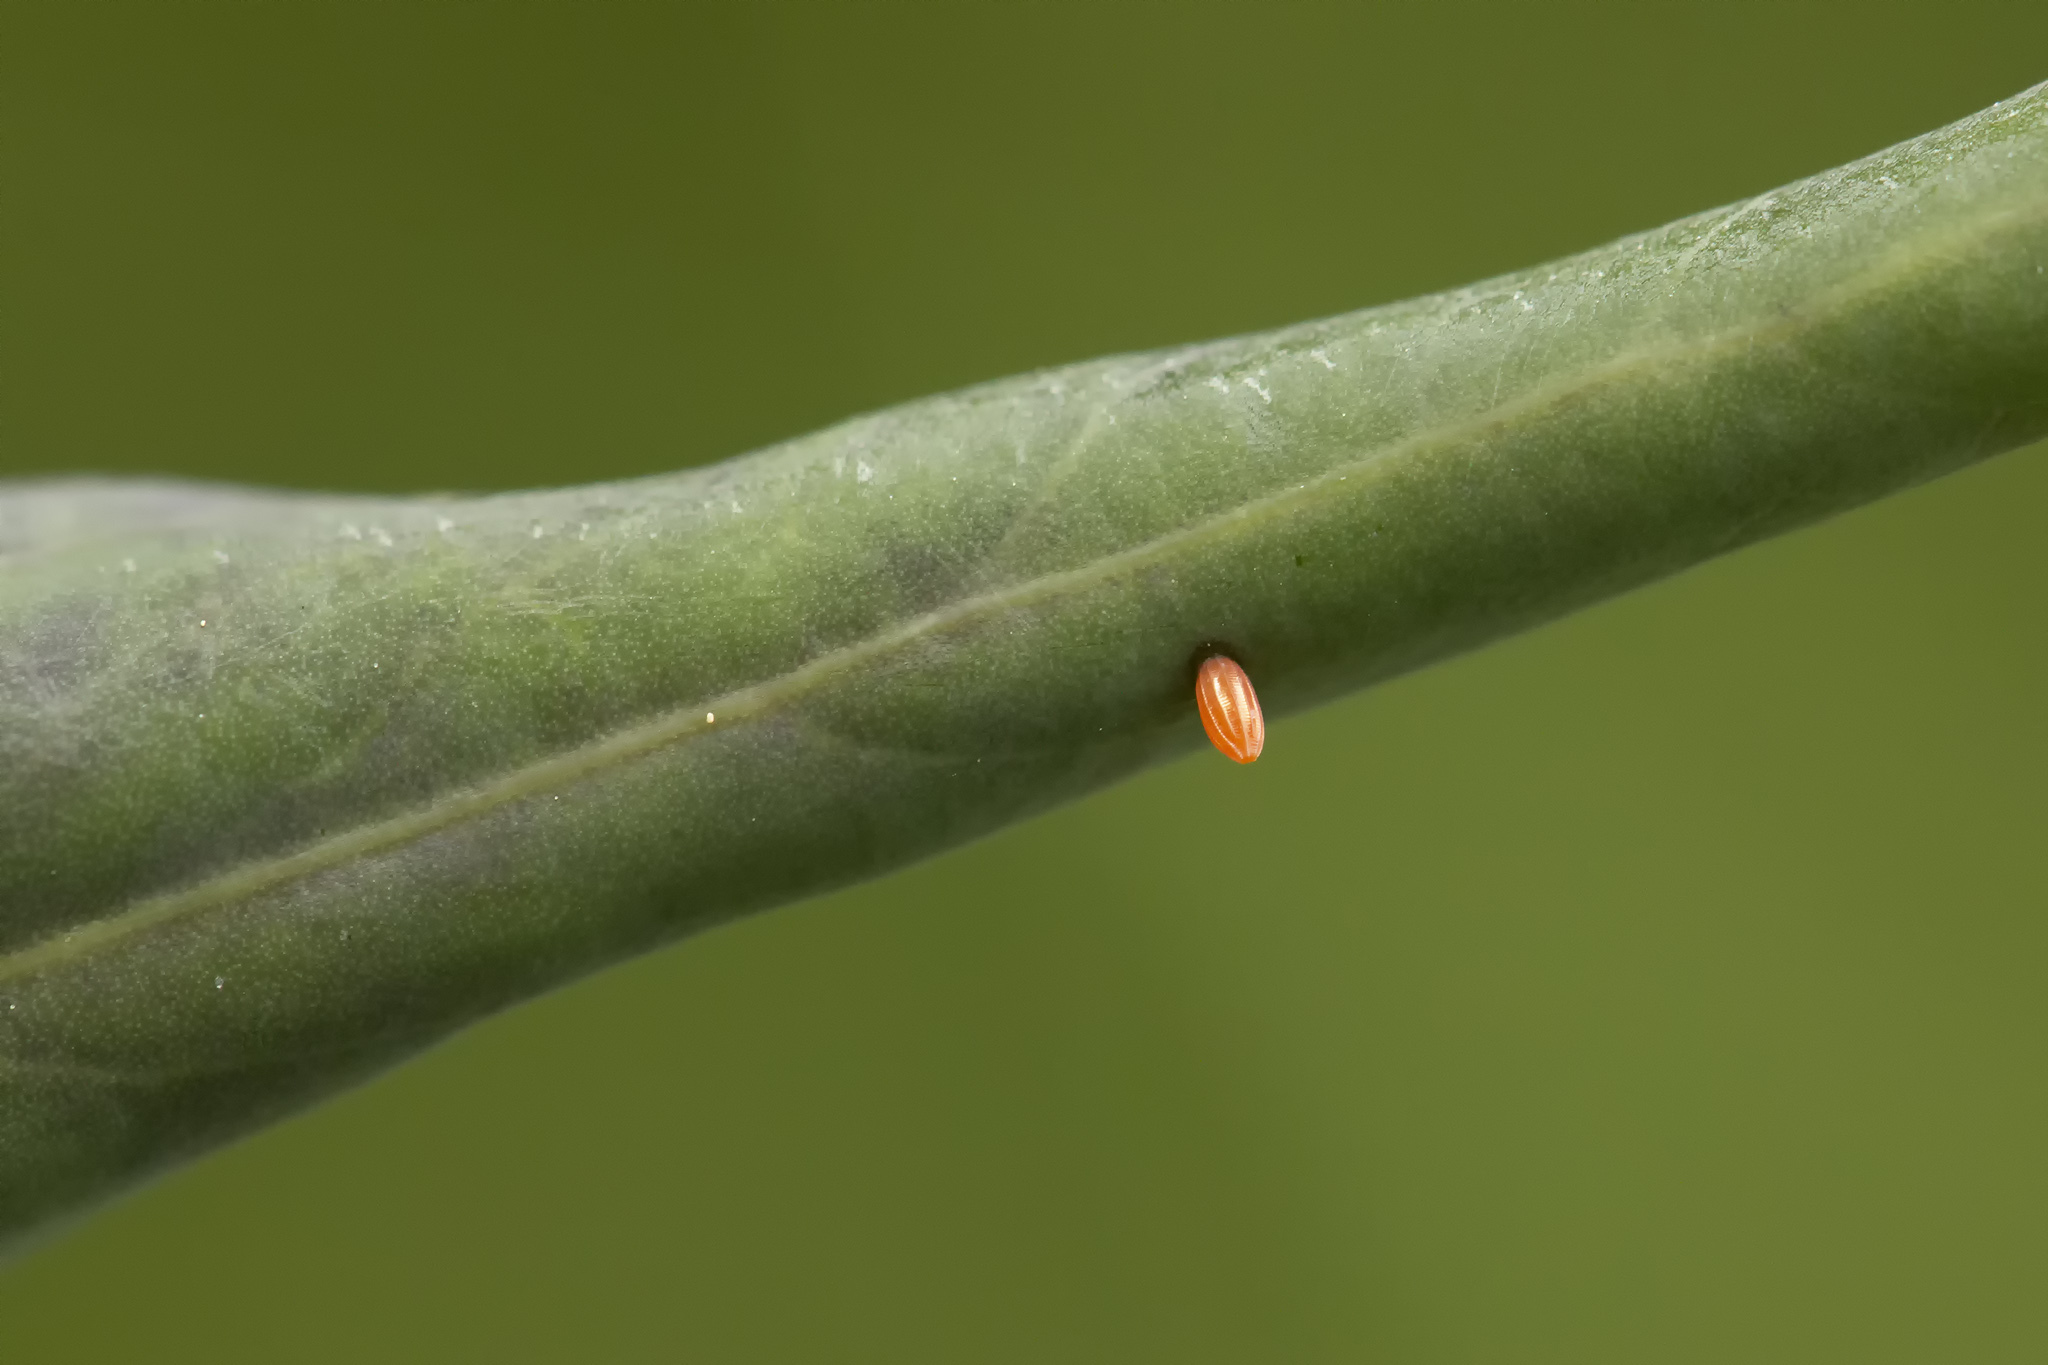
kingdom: Animalia
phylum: Arthropoda
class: Insecta
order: Lepidoptera
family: Pieridae
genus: Anthocharis
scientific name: Anthocharis cardamines
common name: Orange-tip
